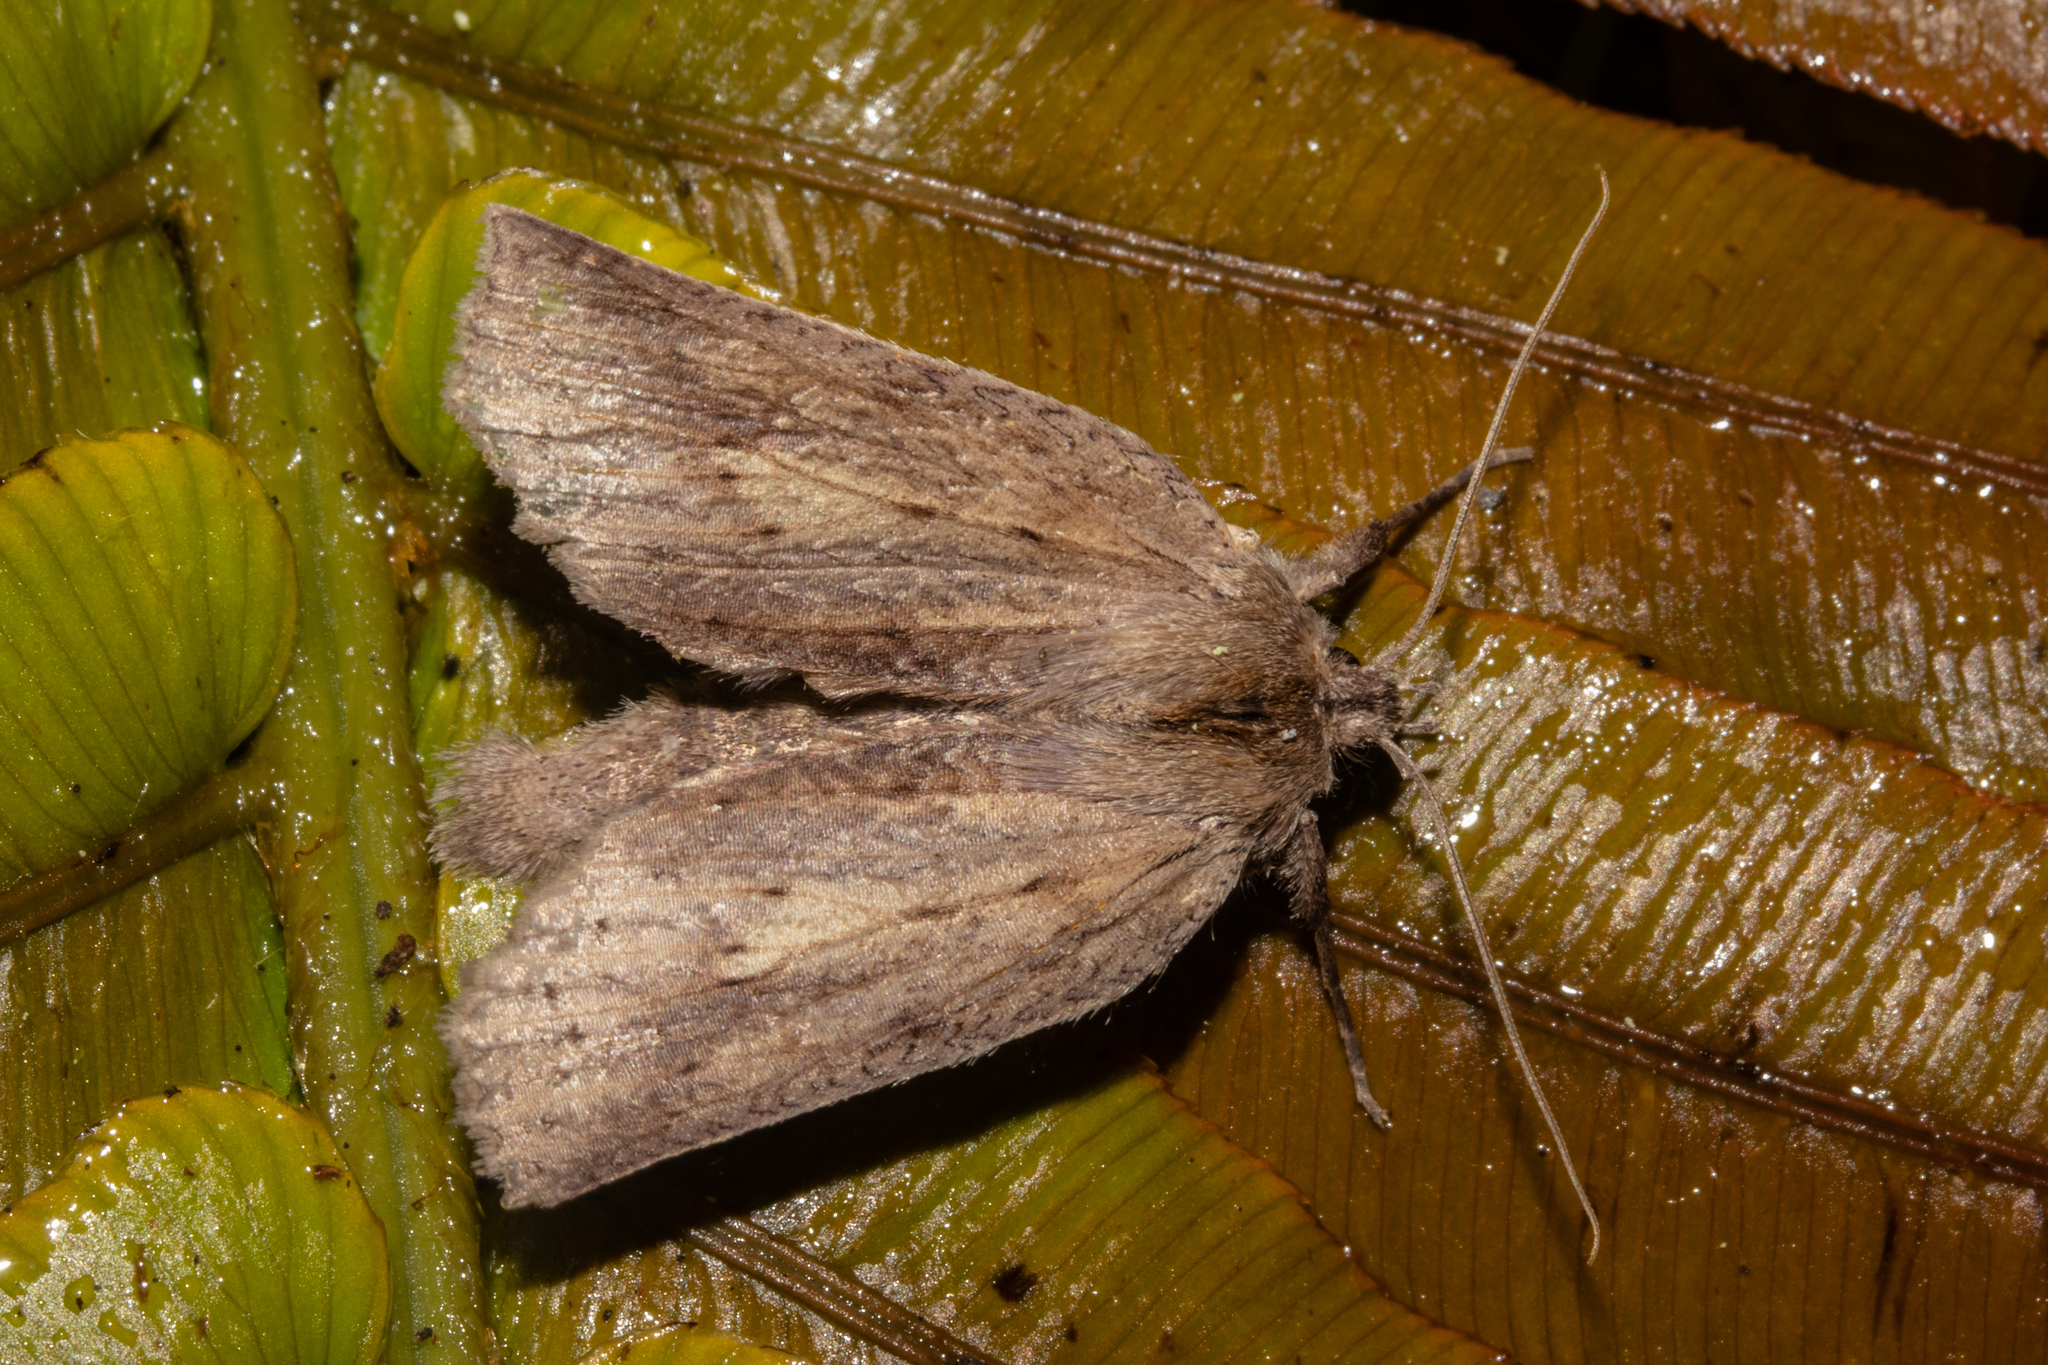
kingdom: Animalia
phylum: Arthropoda
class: Insecta
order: Lepidoptera
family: Geometridae
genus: Declana
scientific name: Declana leptomera
